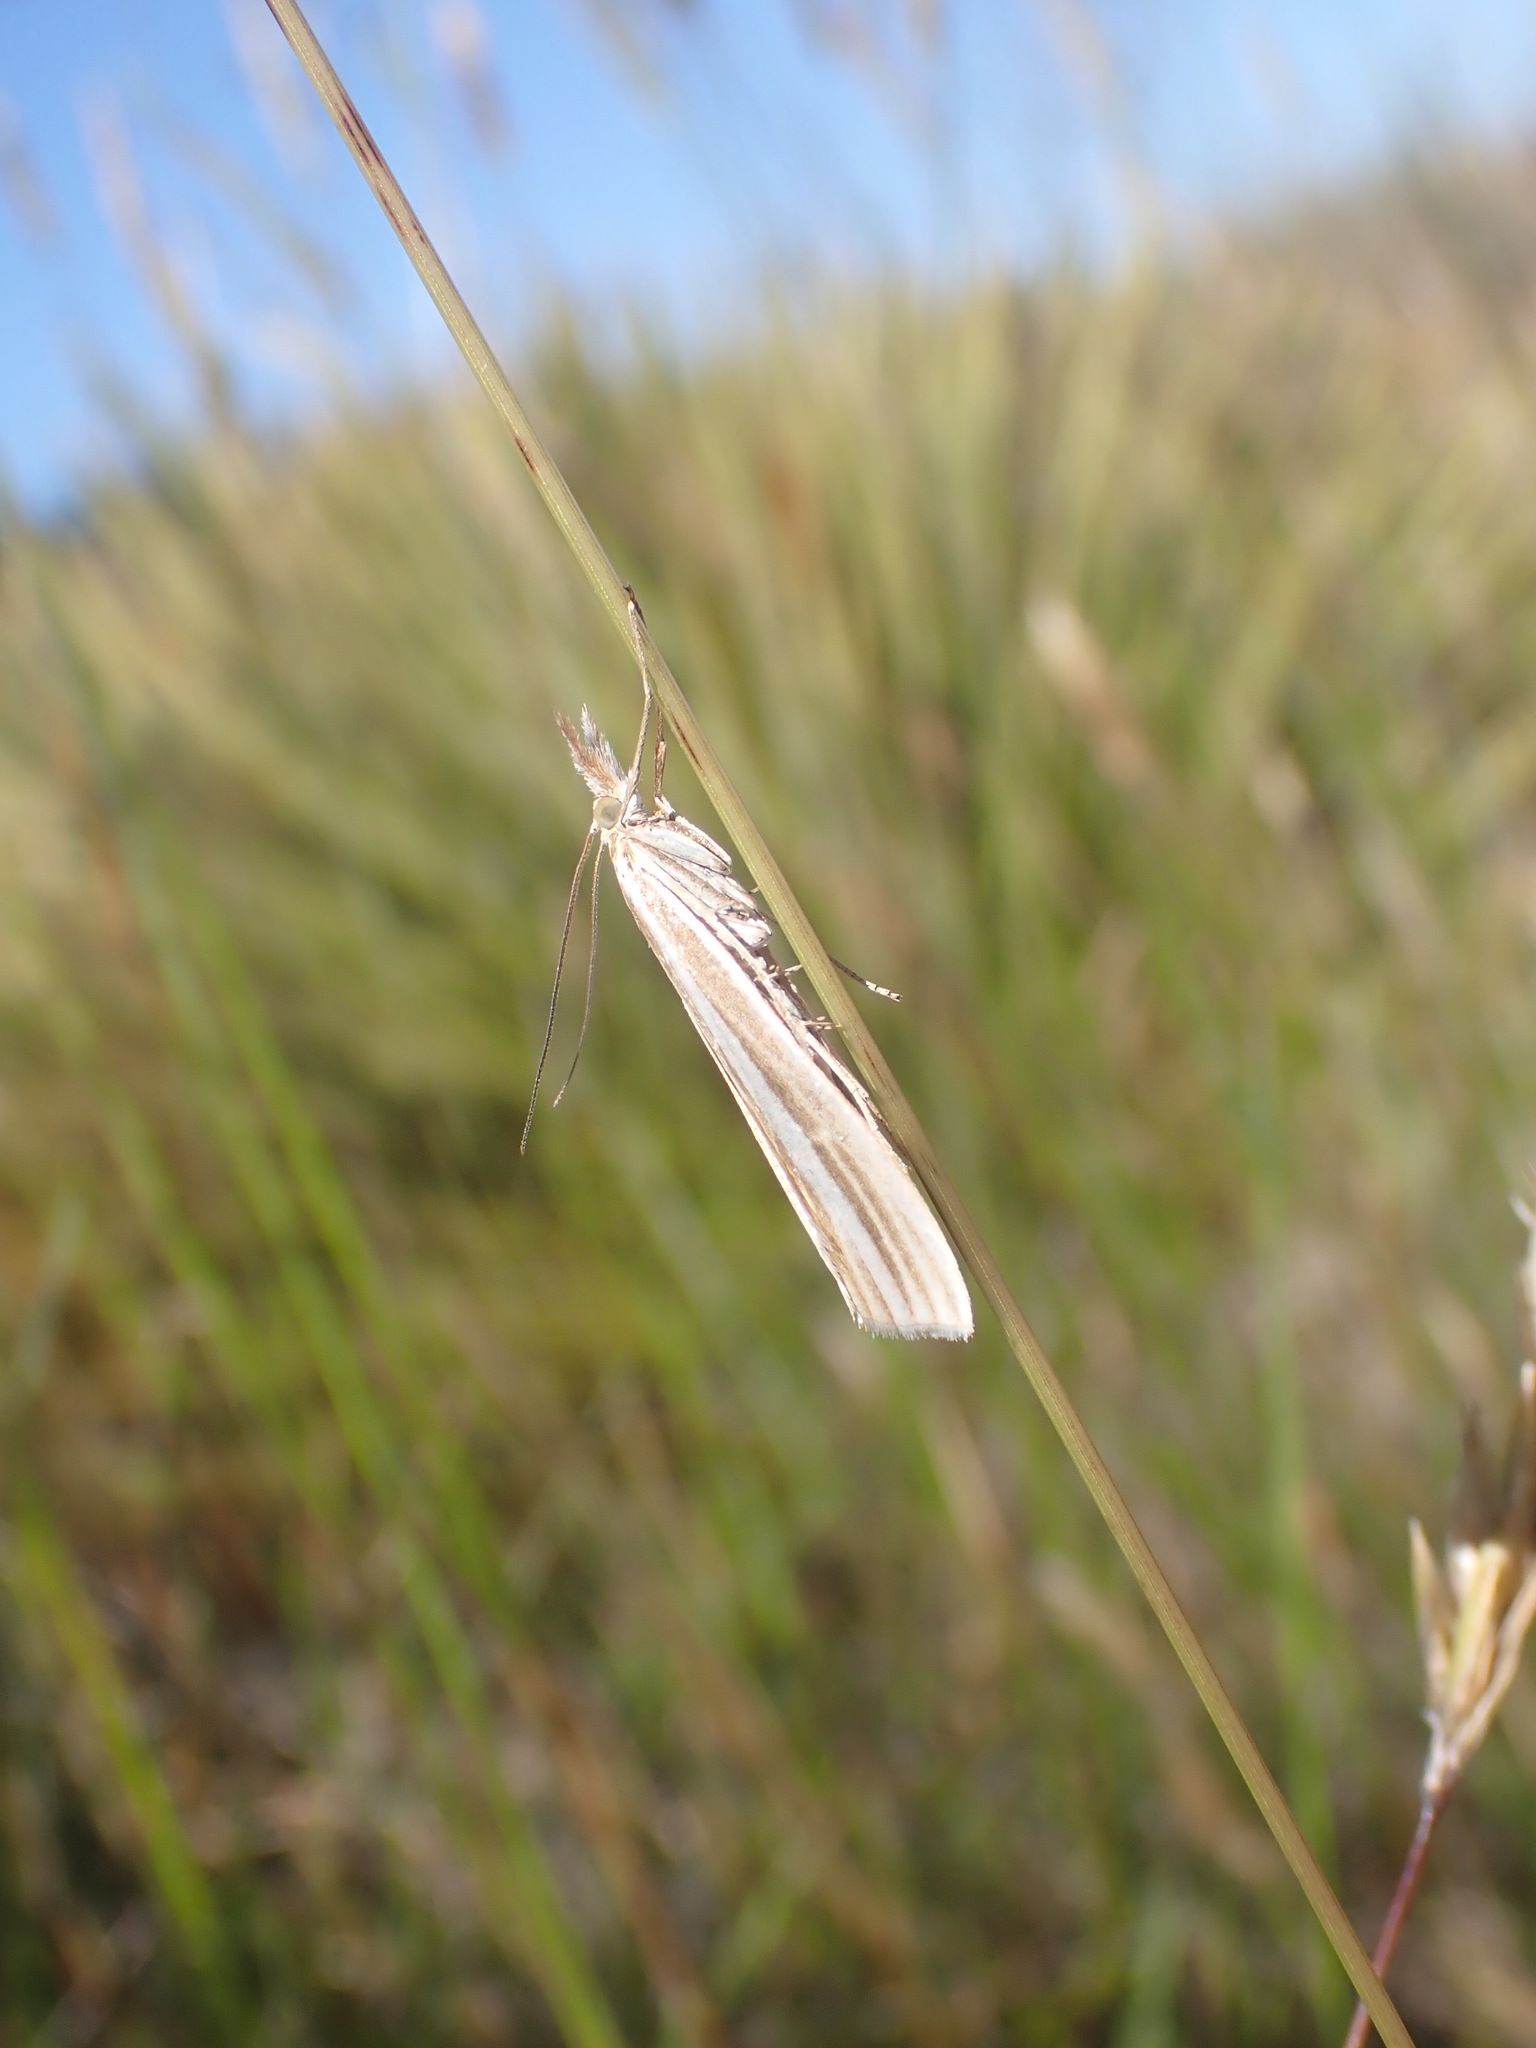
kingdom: Animalia
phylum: Arthropoda
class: Insecta
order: Lepidoptera
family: Crambidae
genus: Orocrambus
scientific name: Orocrambus lewisi
